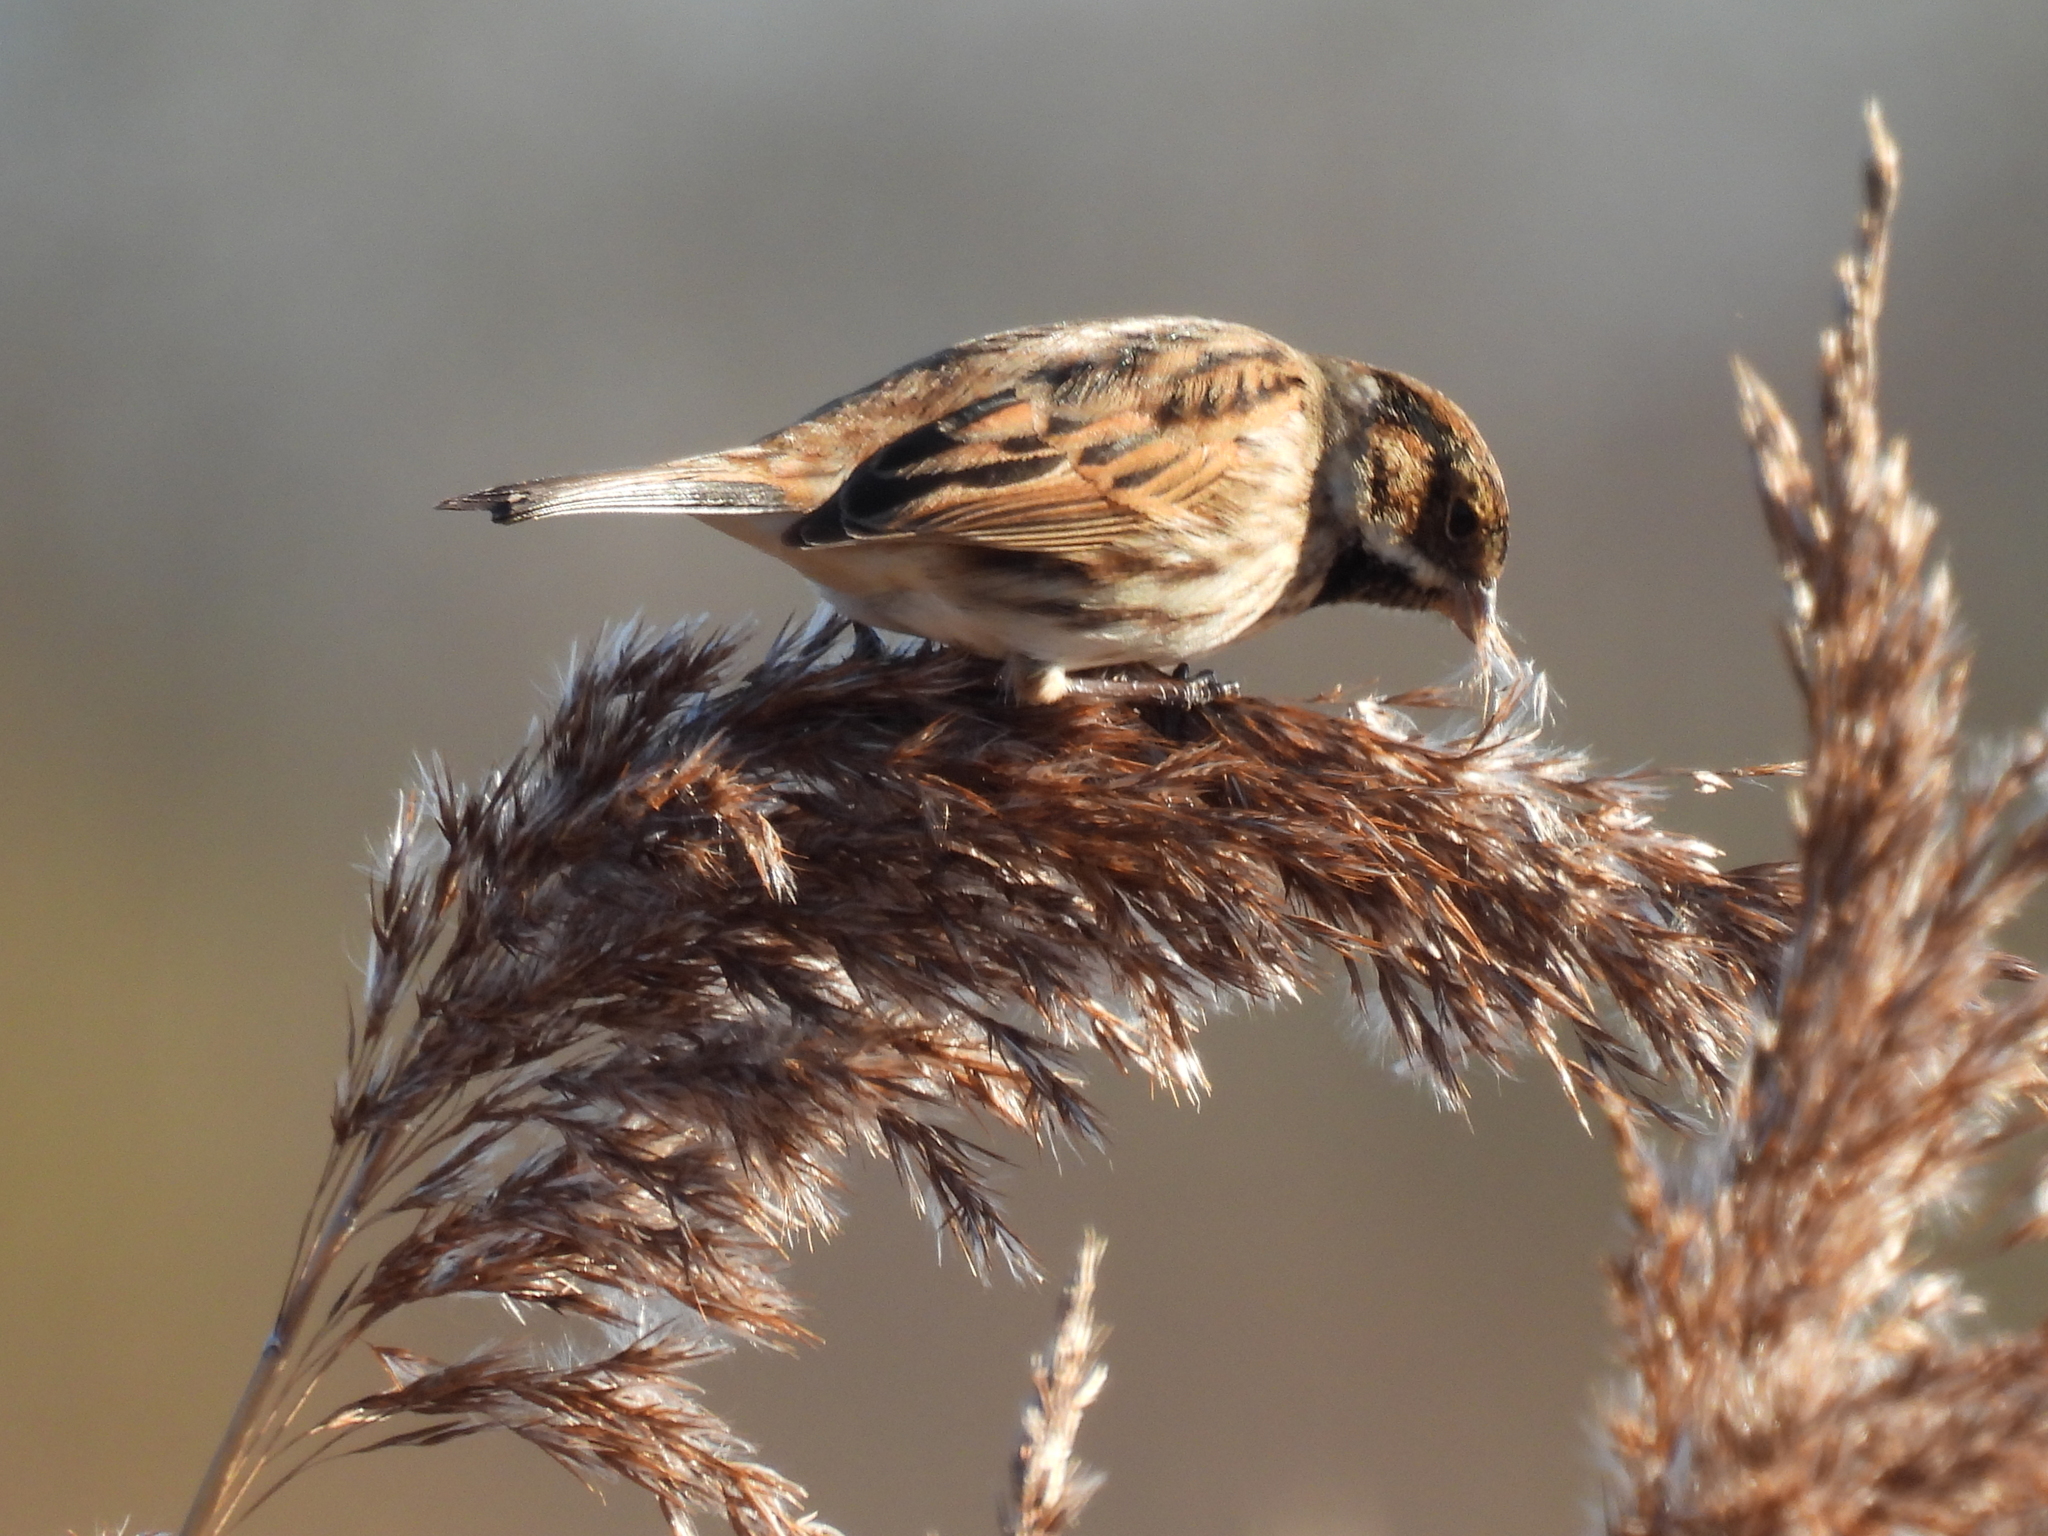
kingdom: Animalia
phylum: Chordata
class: Aves
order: Passeriformes
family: Emberizidae
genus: Emberiza
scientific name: Emberiza schoeniclus
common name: Reed bunting
